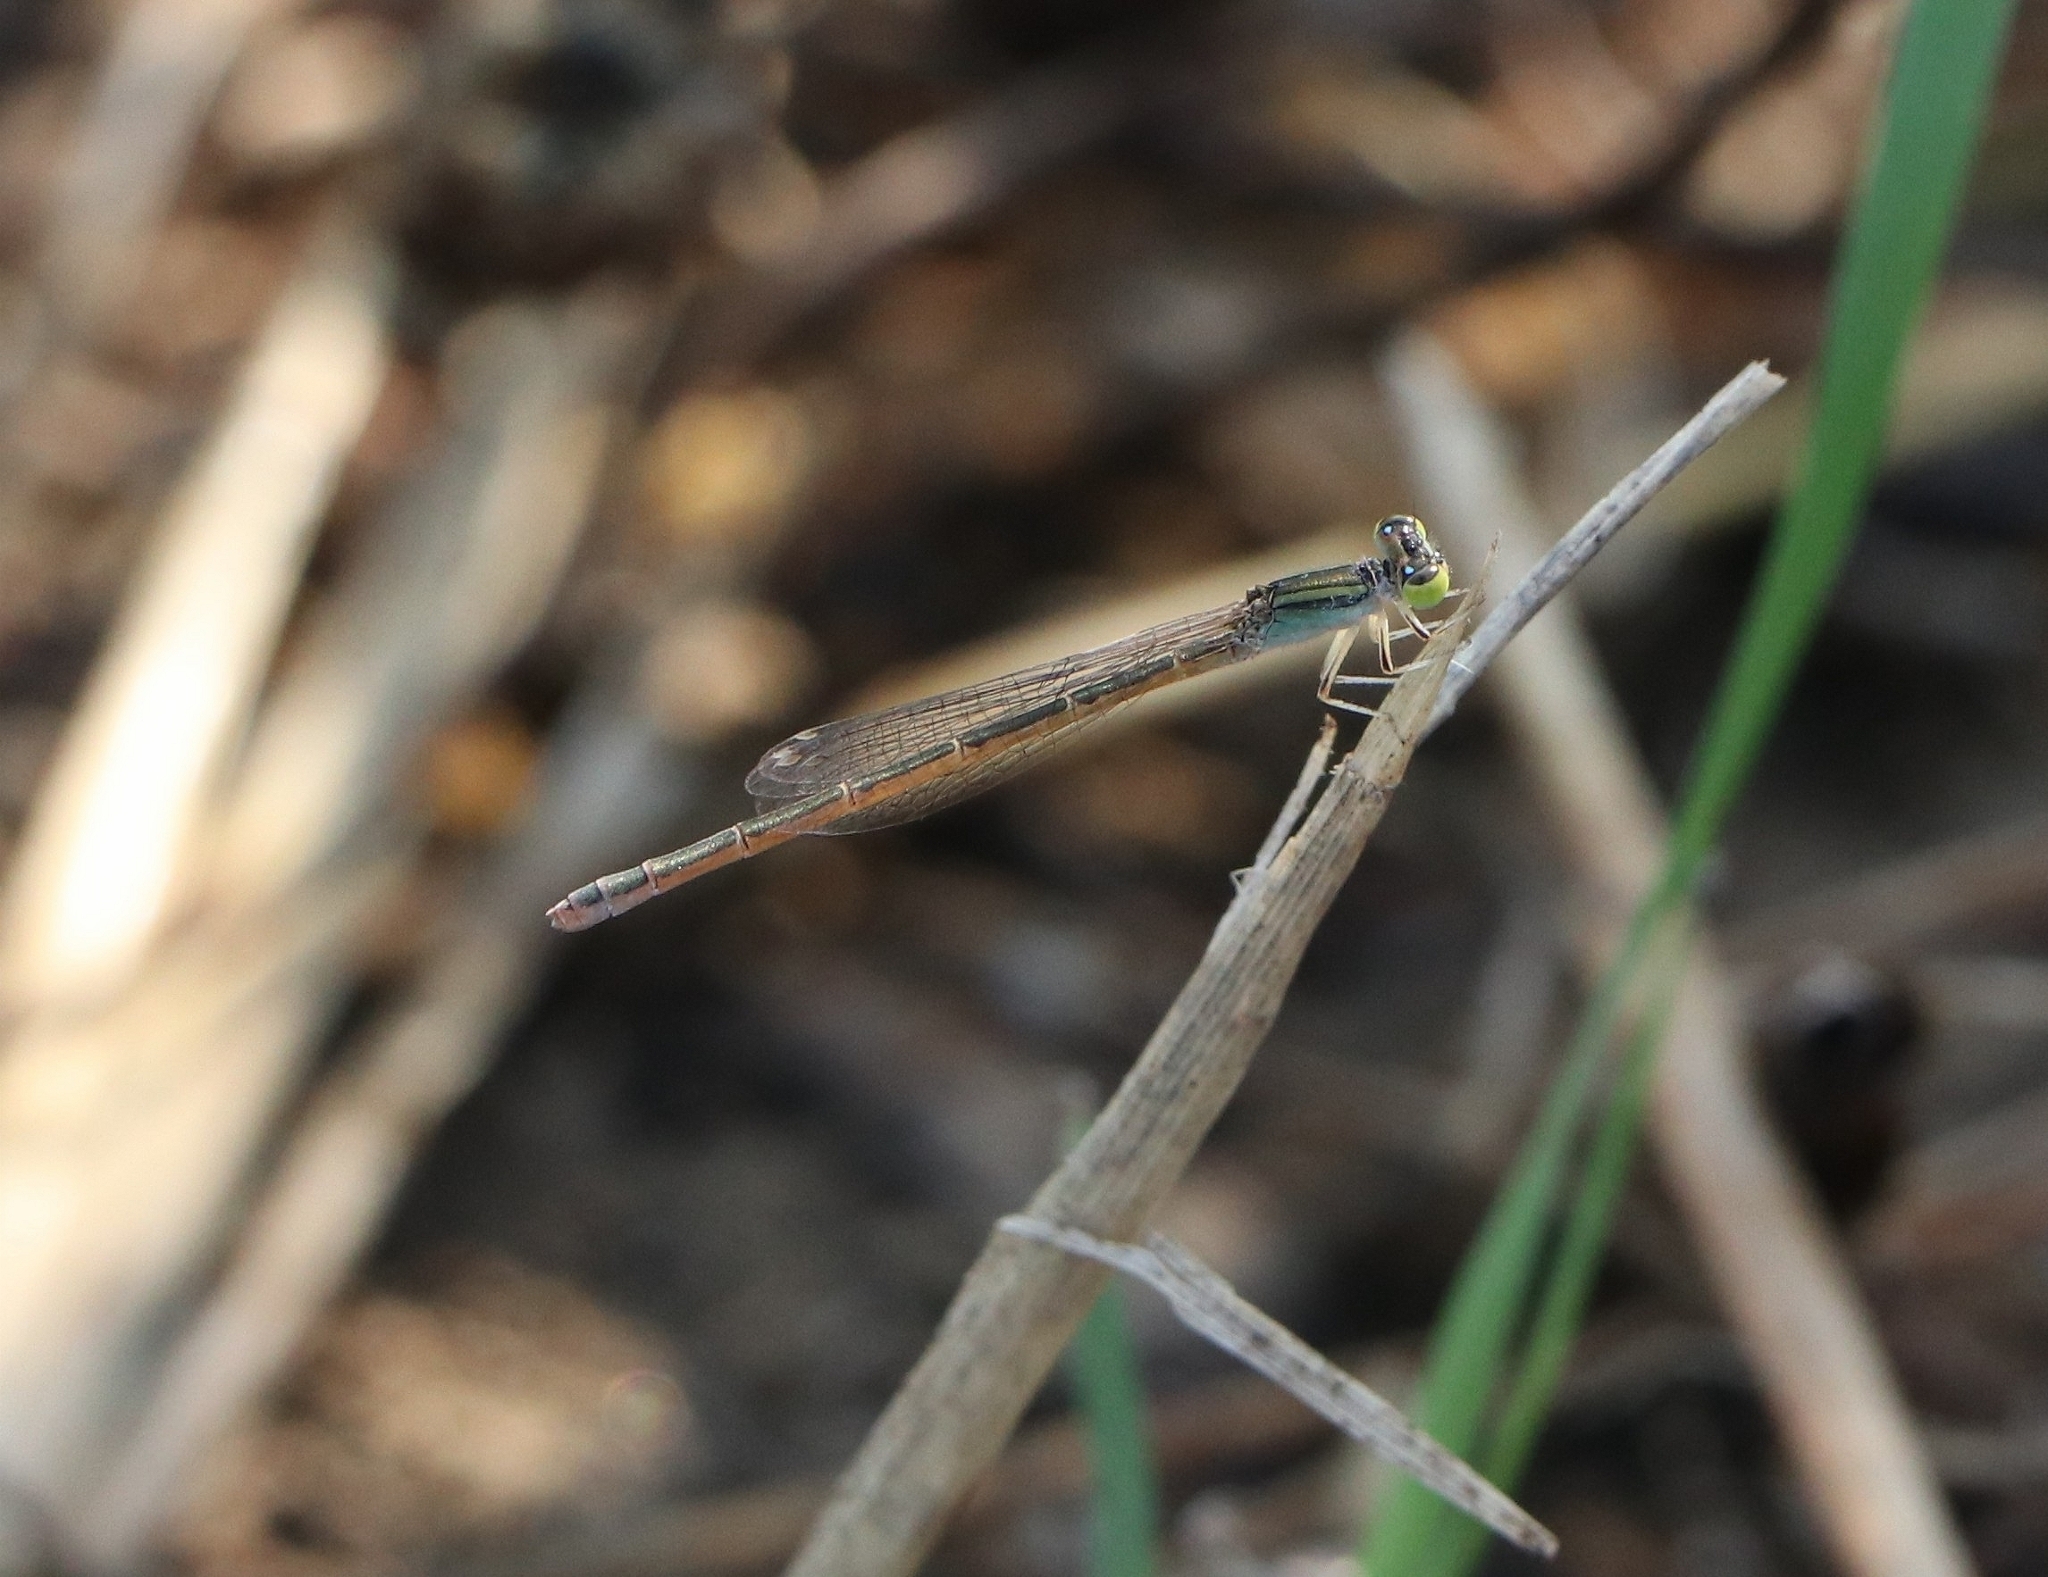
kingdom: Animalia
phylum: Arthropoda
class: Insecta
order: Odonata
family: Coenagrionidae
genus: Ischnura
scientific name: Ischnura rubilio
